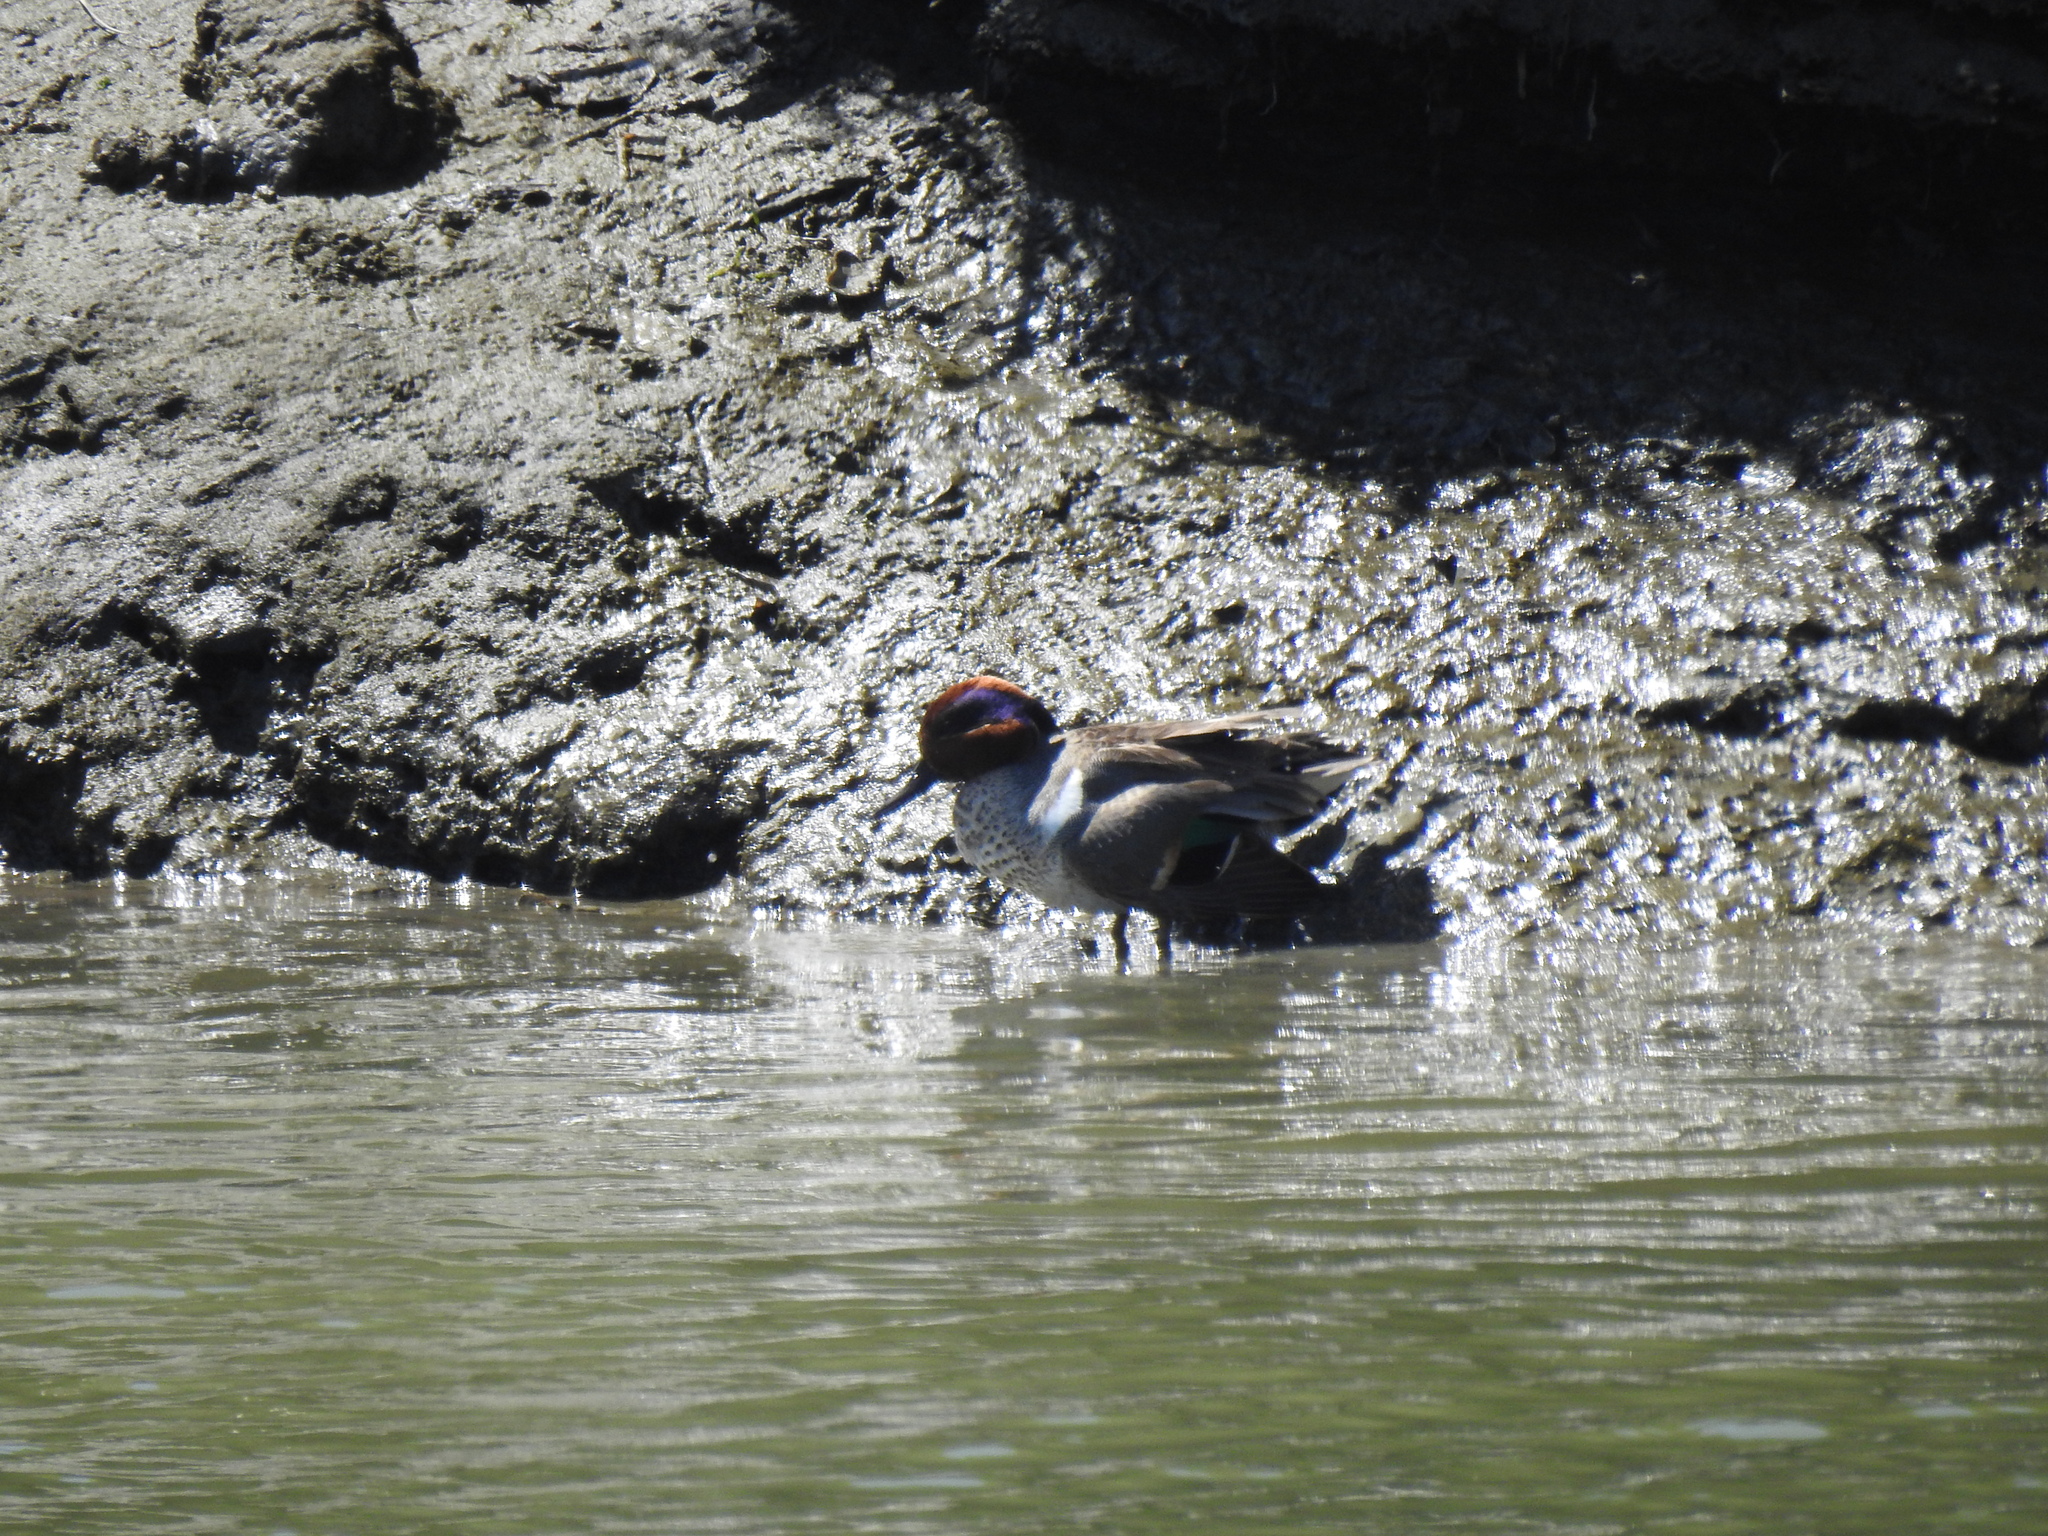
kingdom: Animalia
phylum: Chordata
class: Aves
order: Anseriformes
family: Anatidae
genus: Anas
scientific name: Anas crecca
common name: Eurasian teal
